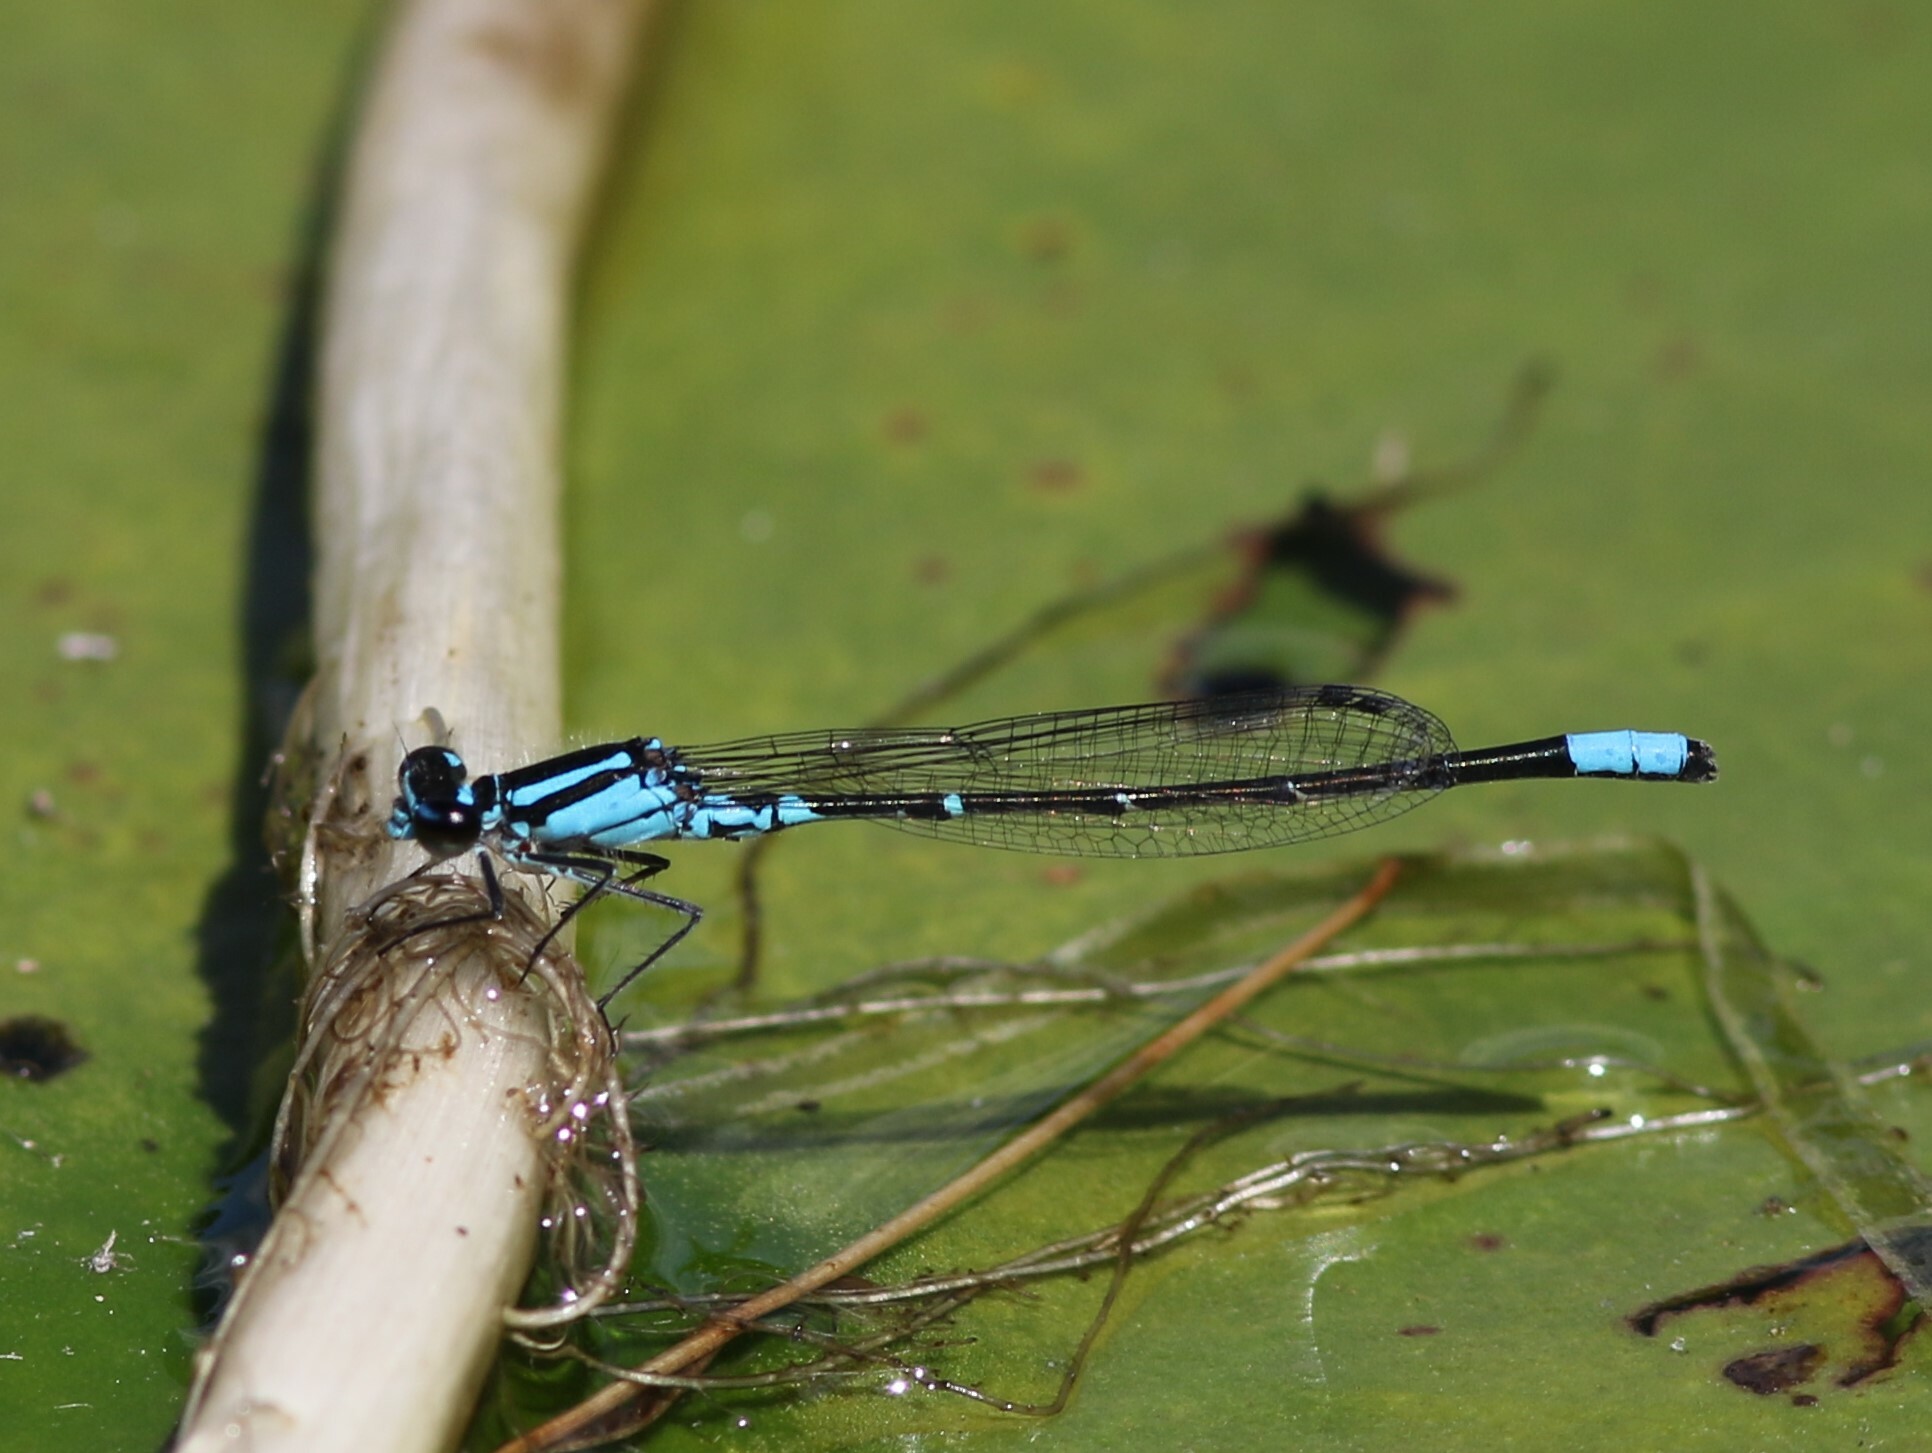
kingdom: Animalia
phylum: Arthropoda
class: Insecta
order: Odonata
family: Coenagrionidae
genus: Enallagma
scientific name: Enallagma geminatum
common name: Skimming bluet
